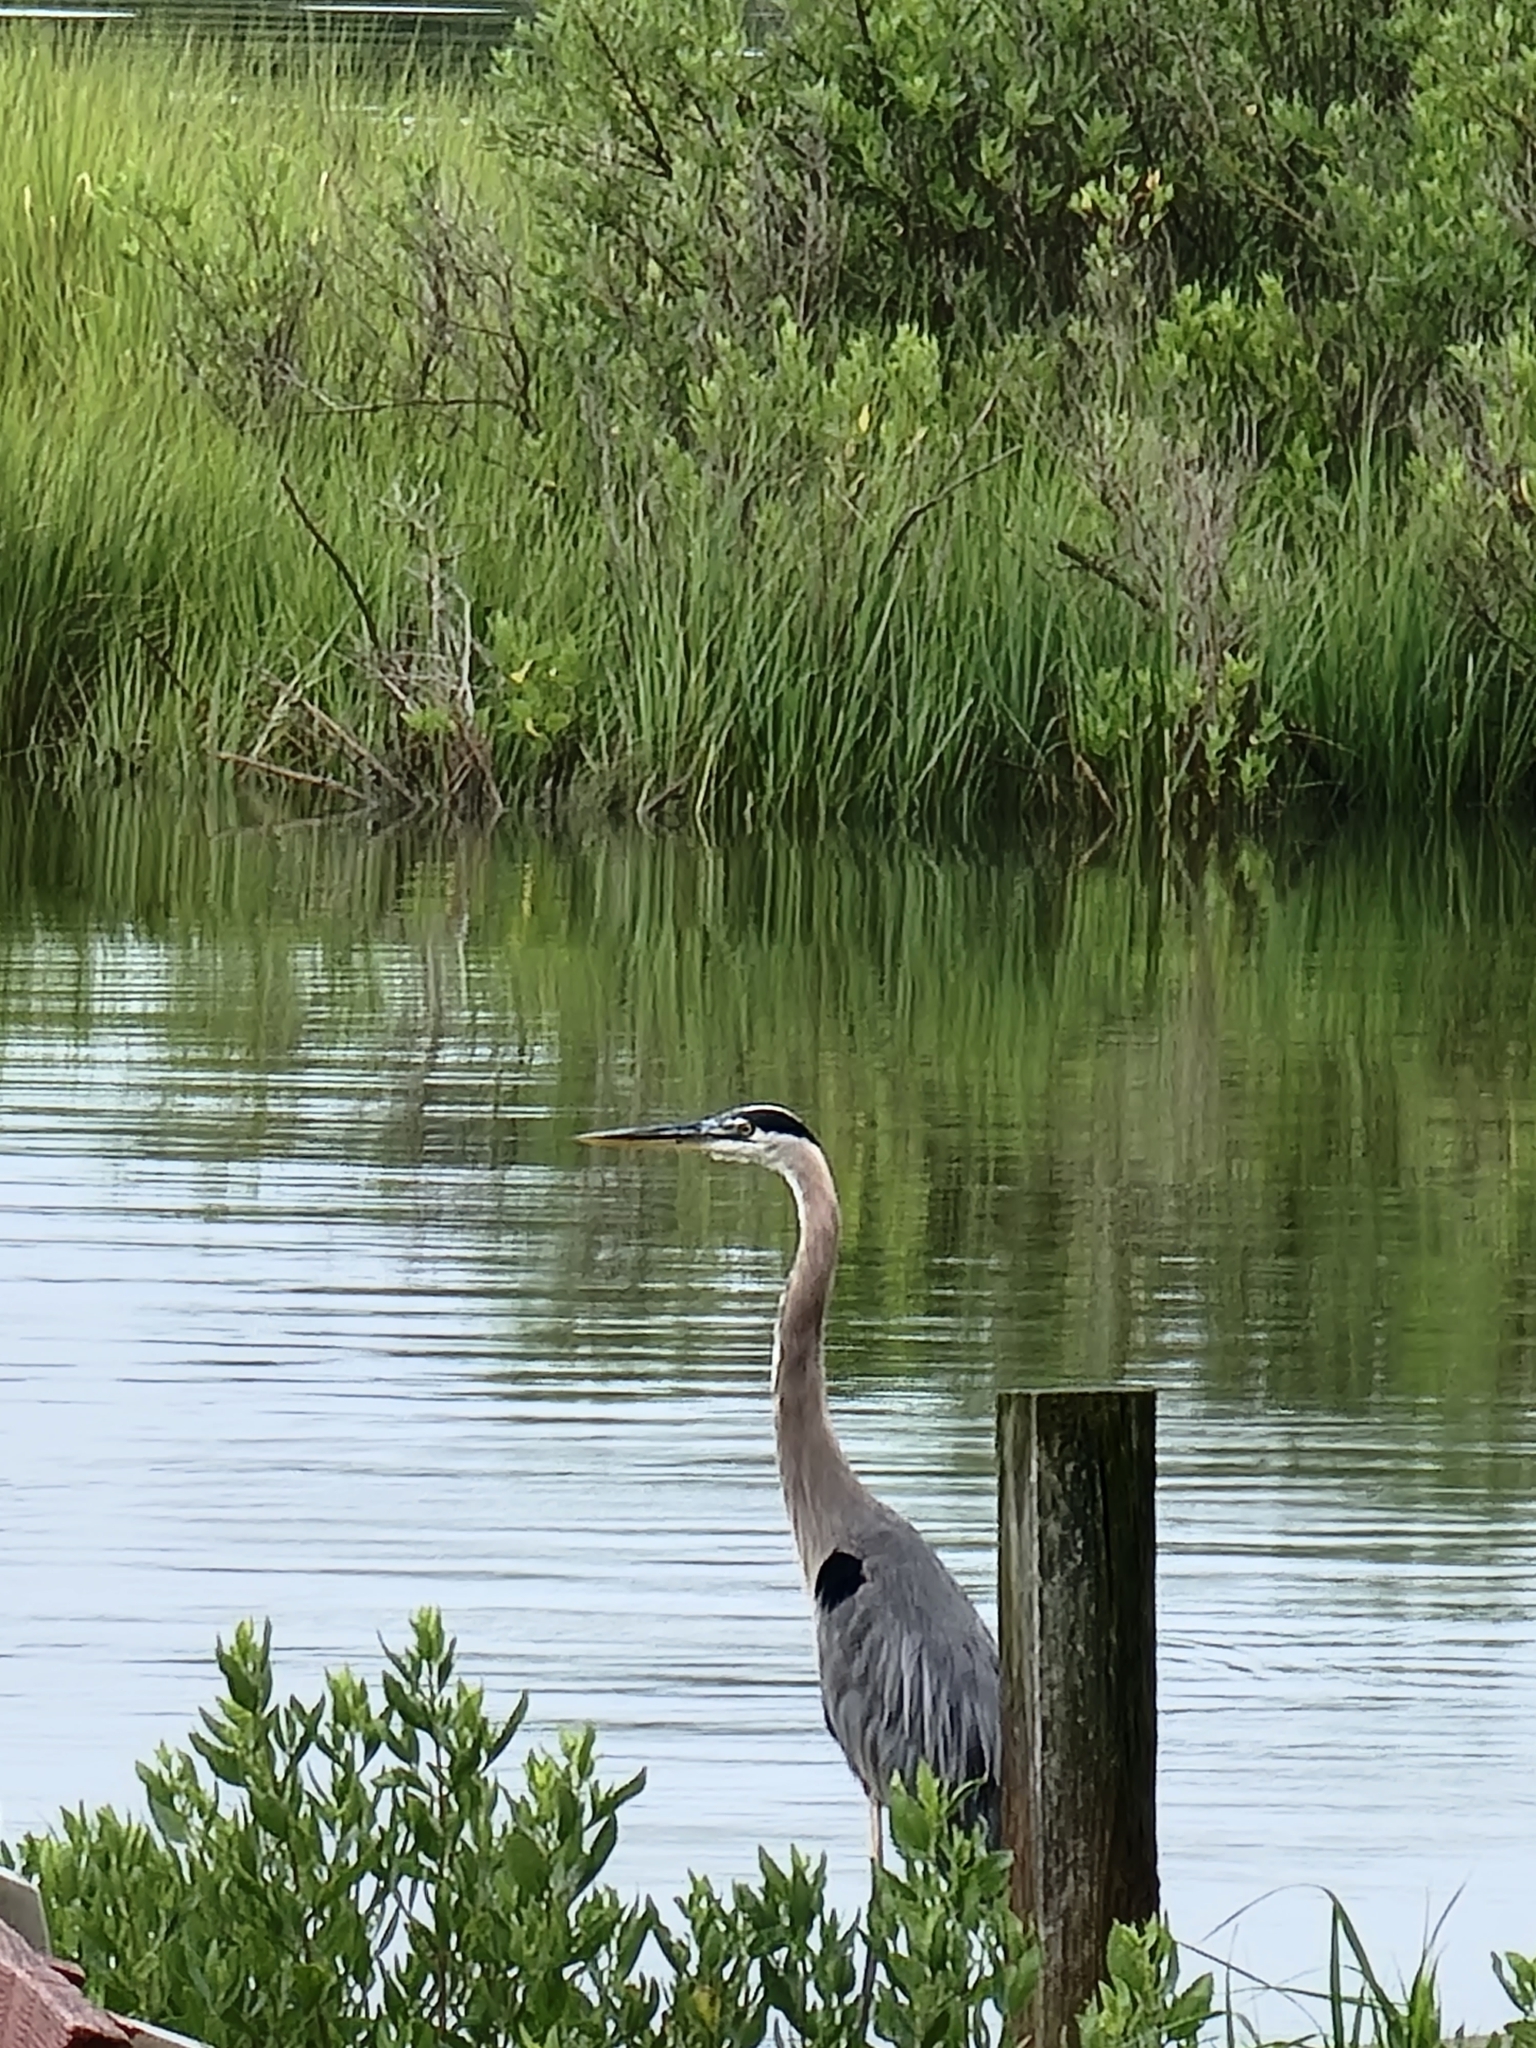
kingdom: Animalia
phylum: Chordata
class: Aves
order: Pelecaniformes
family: Ardeidae
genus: Ardea
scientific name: Ardea herodias
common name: Great blue heron
